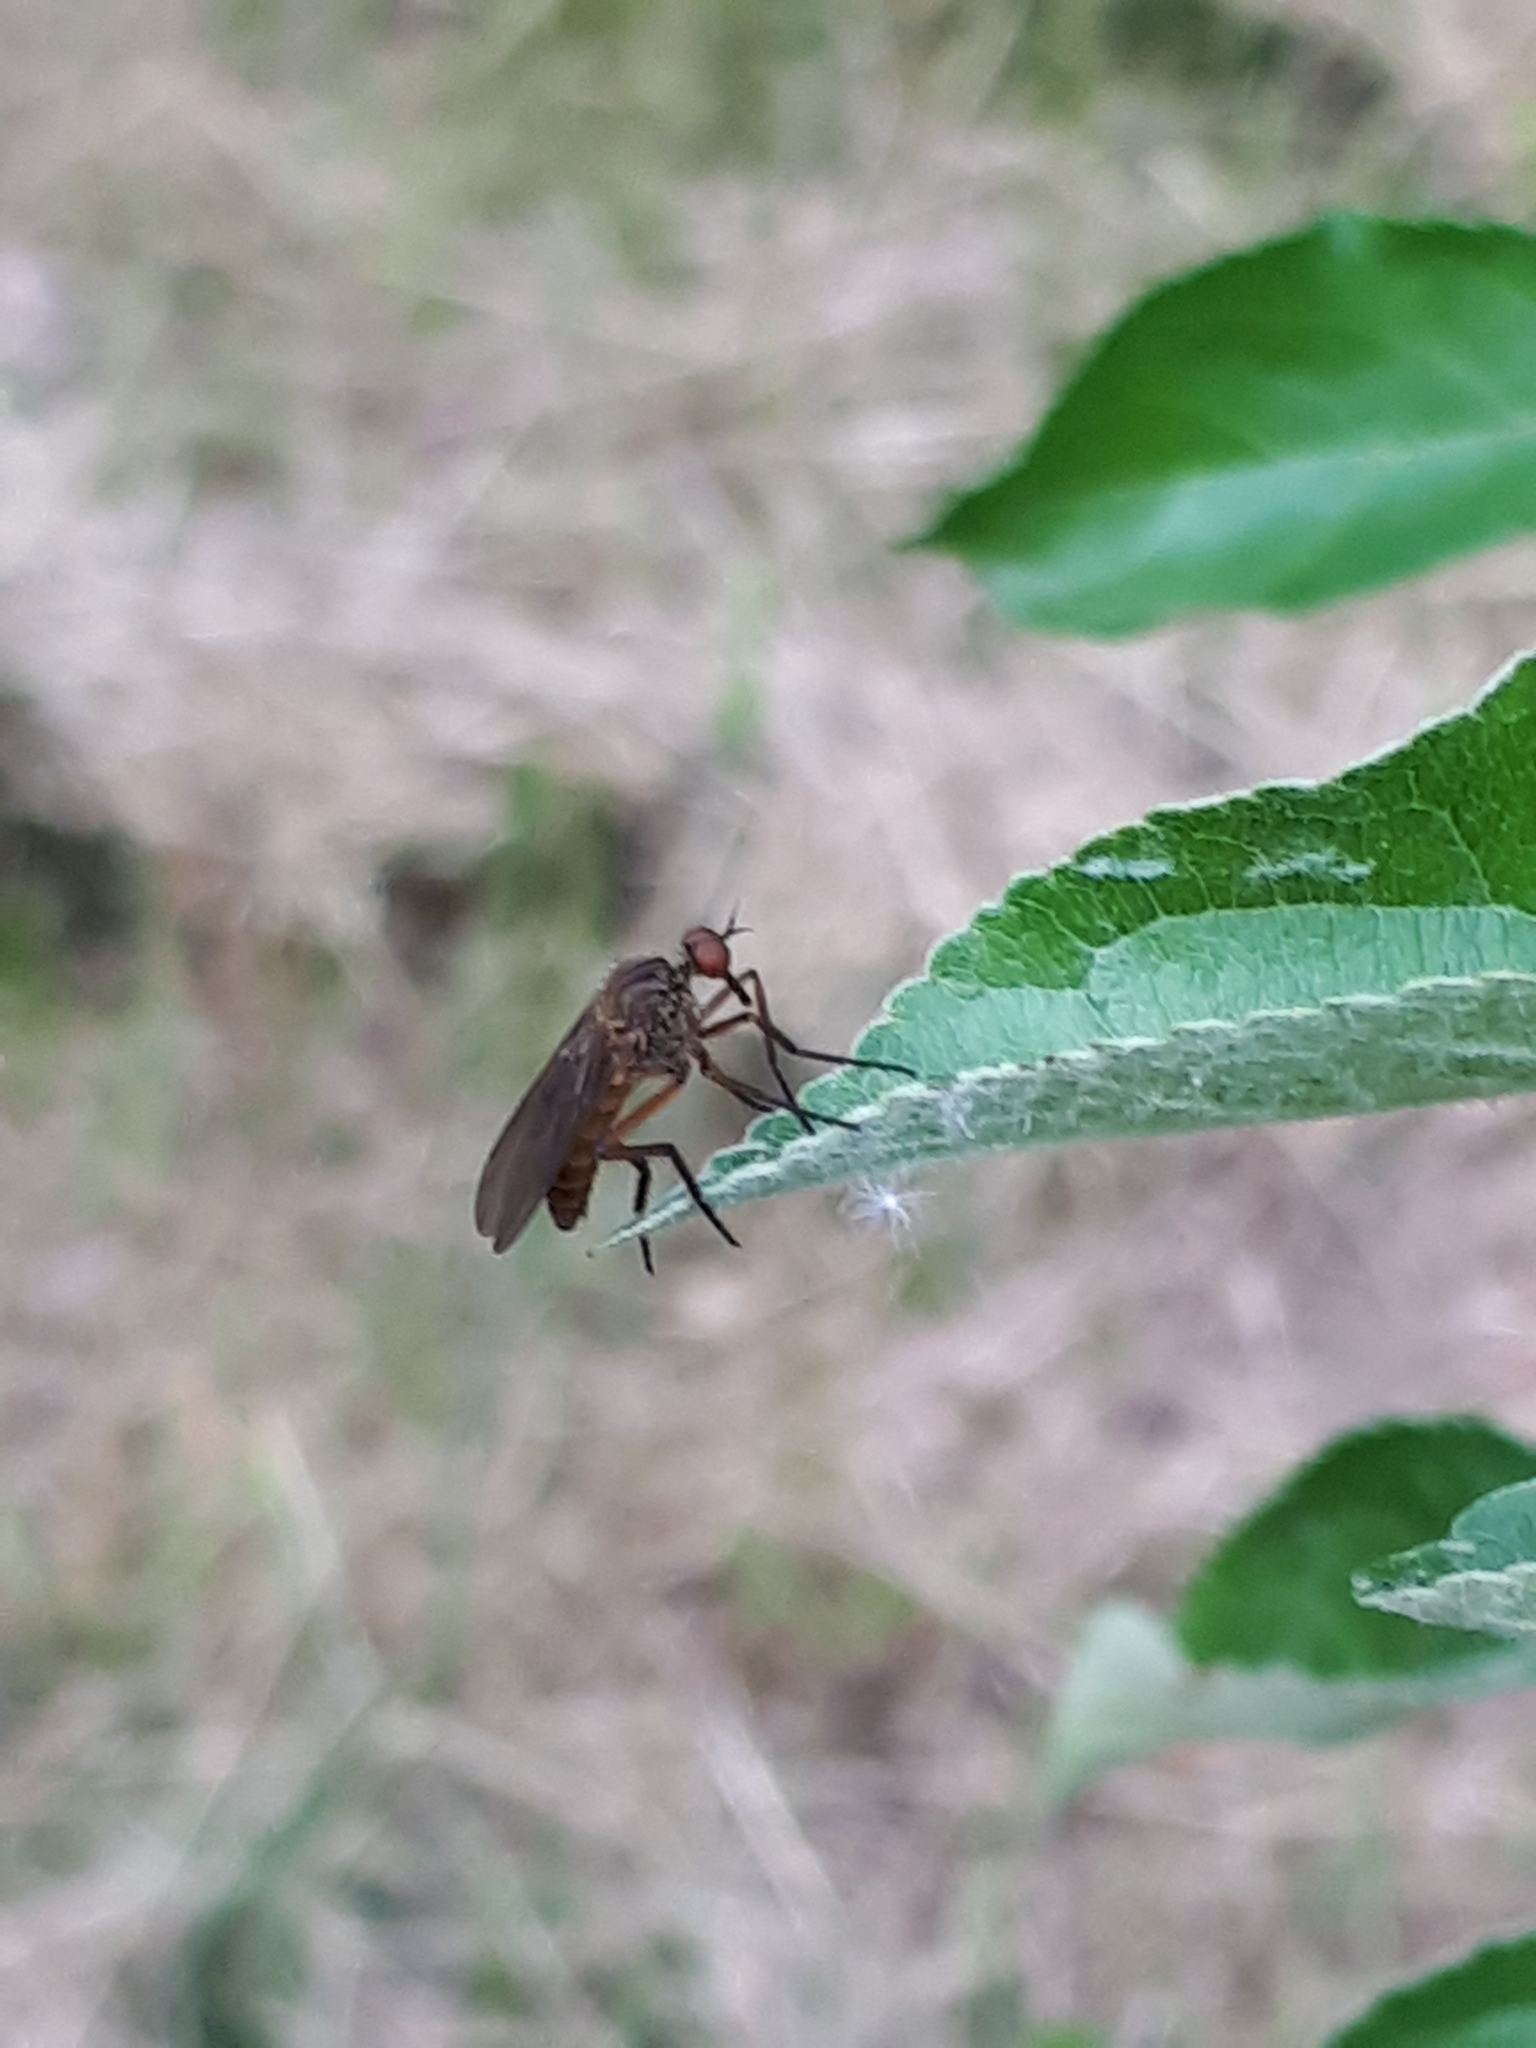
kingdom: Animalia
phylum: Arthropoda
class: Insecta
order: Diptera
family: Empididae
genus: Empis
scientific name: Empis livida
